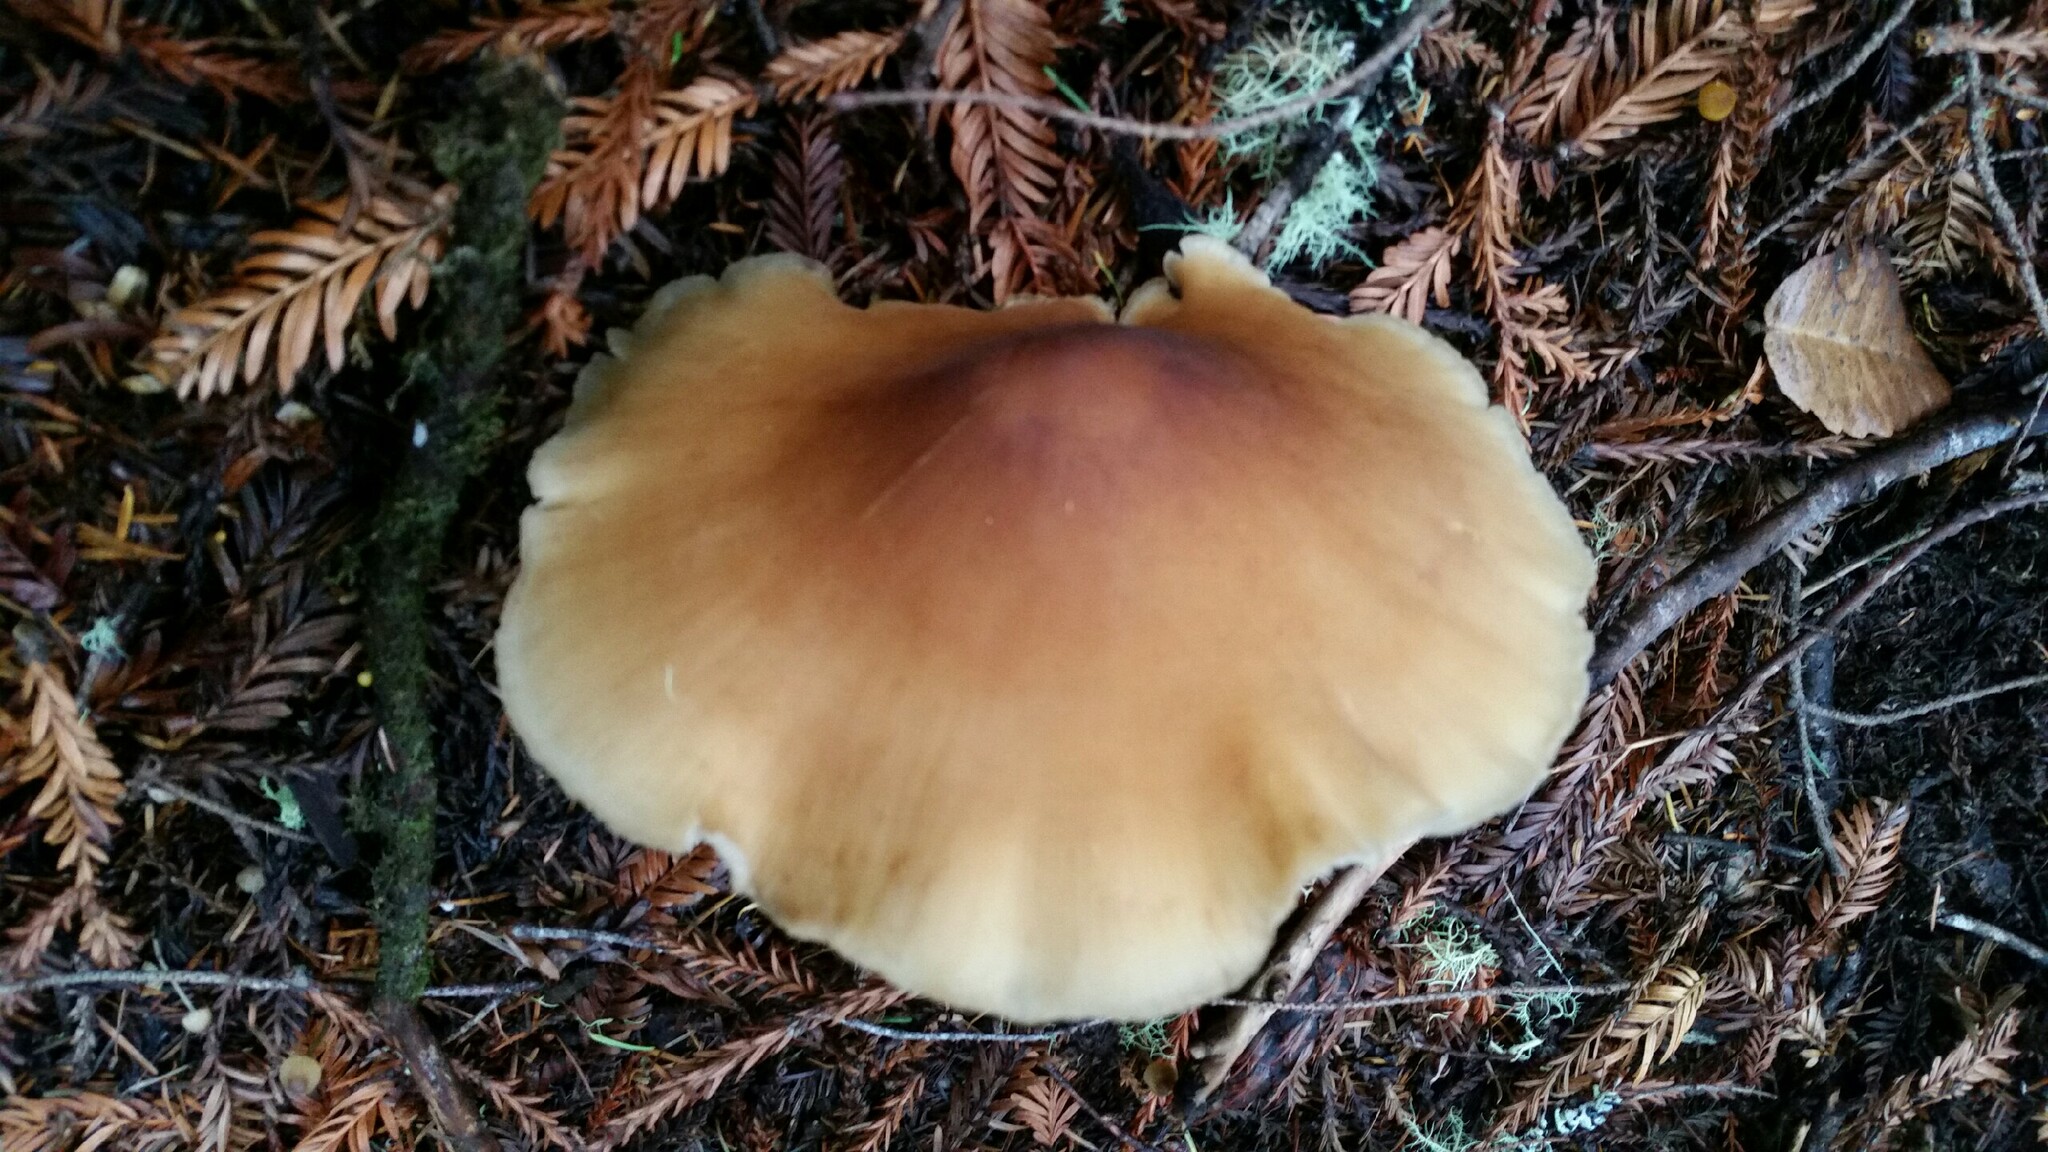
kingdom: Fungi
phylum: Basidiomycota
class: Agaricomycetes
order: Agaricales
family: Tricholomataceae
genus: Caulorhiza
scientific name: Caulorhiza umbonata
